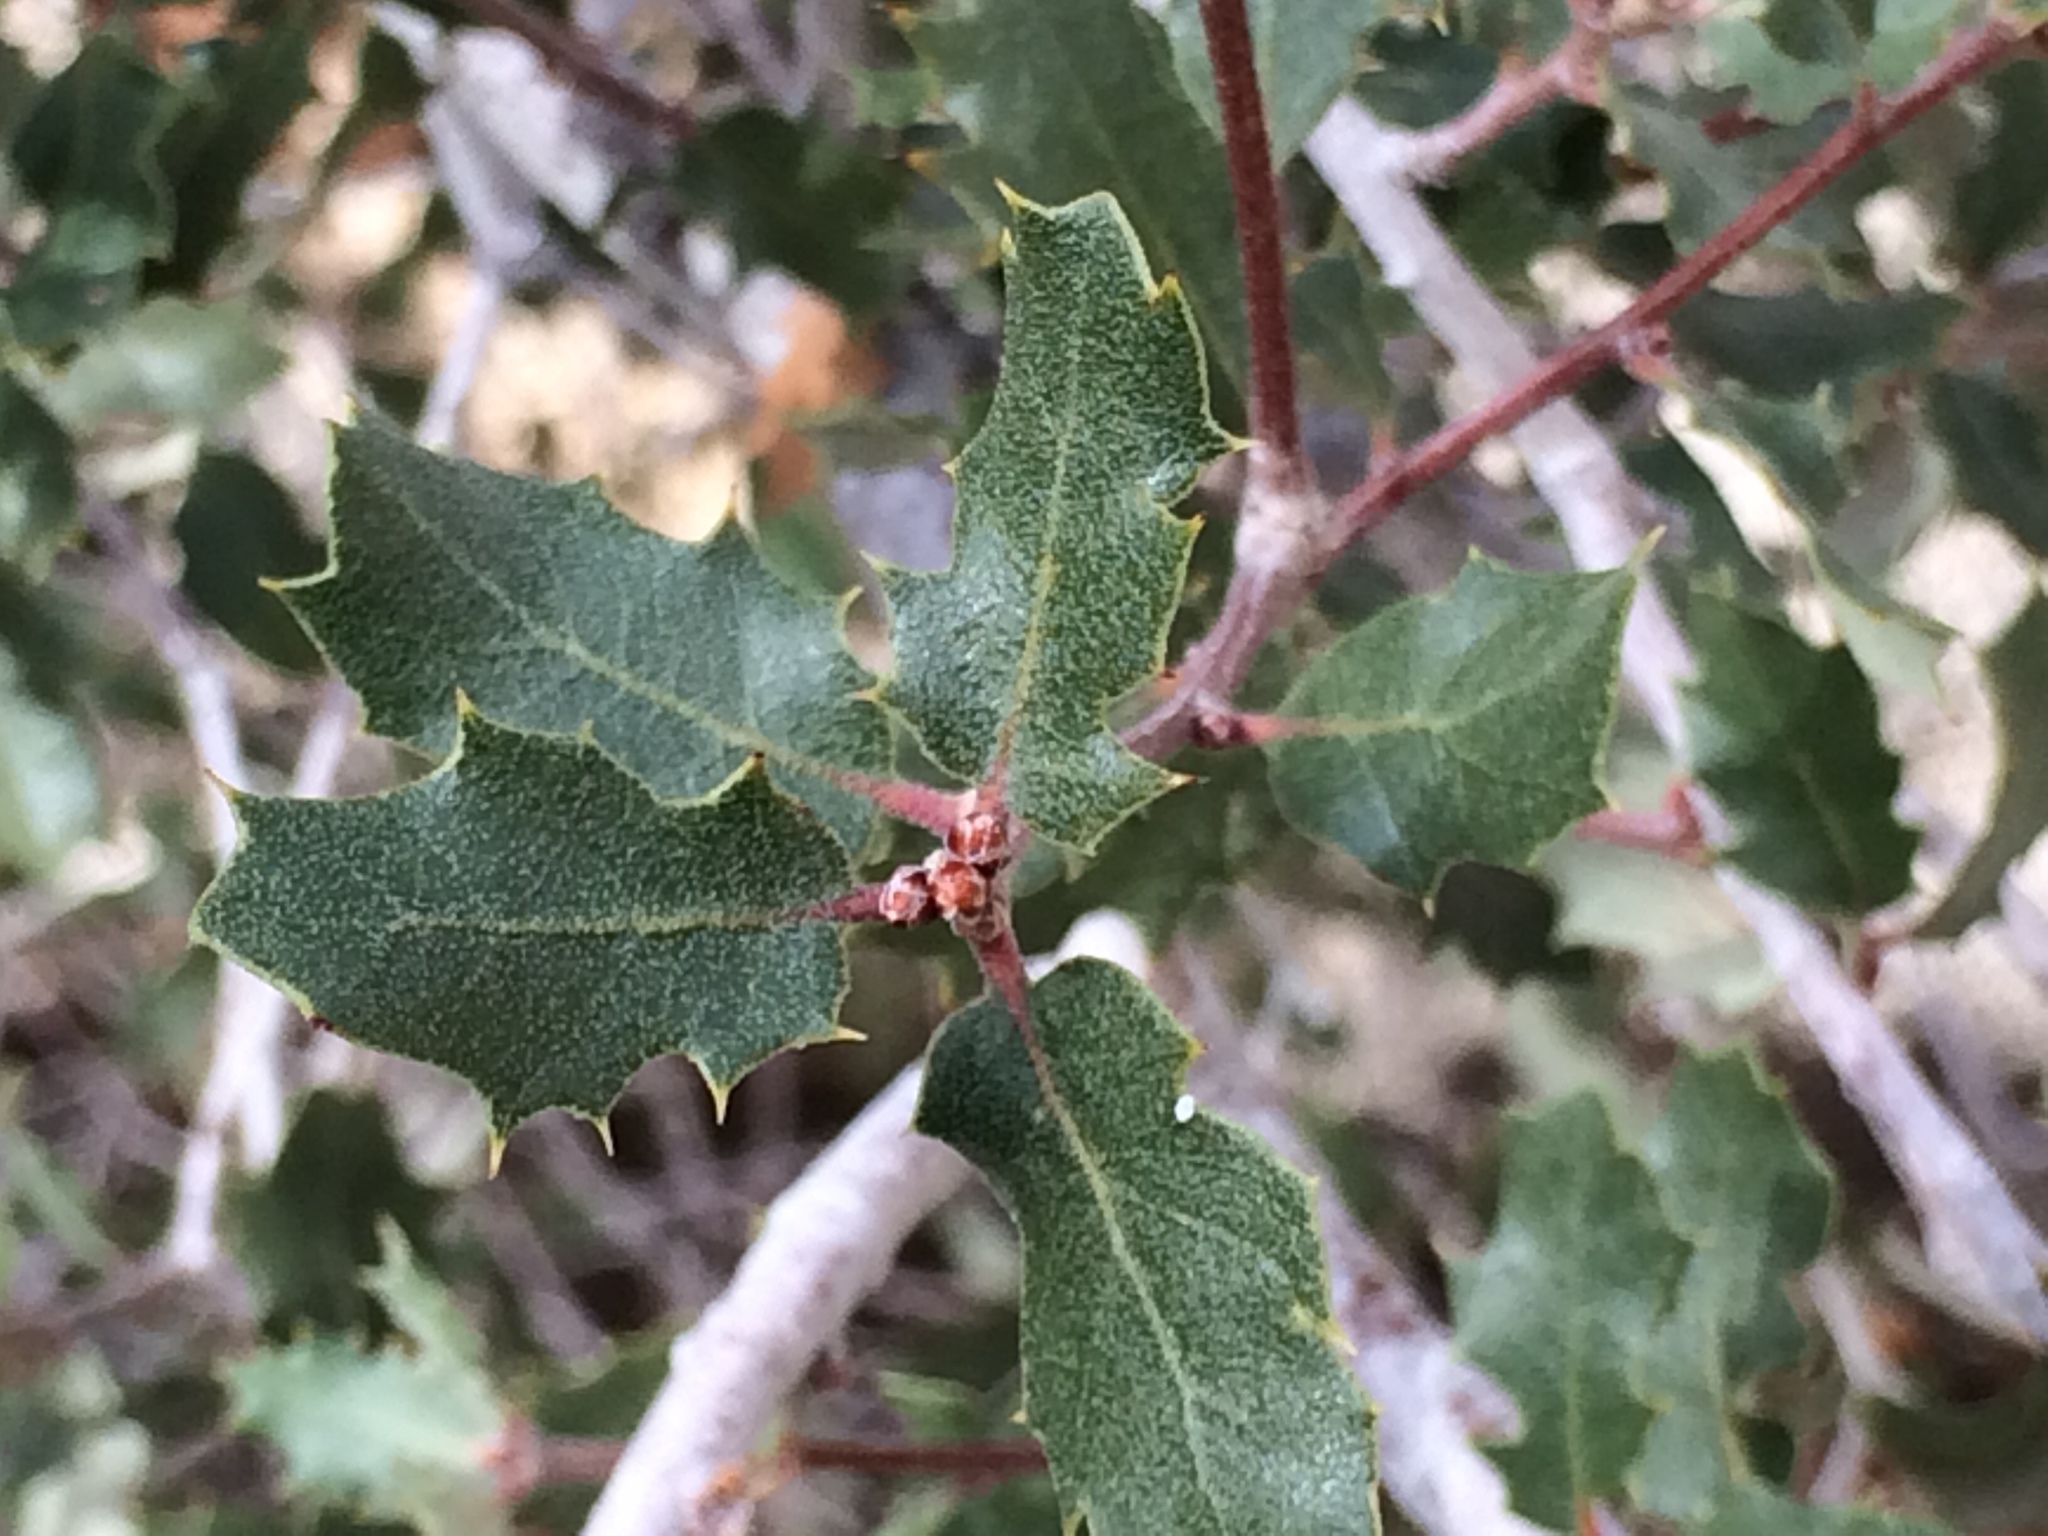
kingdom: Plantae
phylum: Tracheophyta
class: Magnoliopsida
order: Fagales
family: Fagaceae
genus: Quercus
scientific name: Quercus cornelius-mulleri
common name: Muller oak
